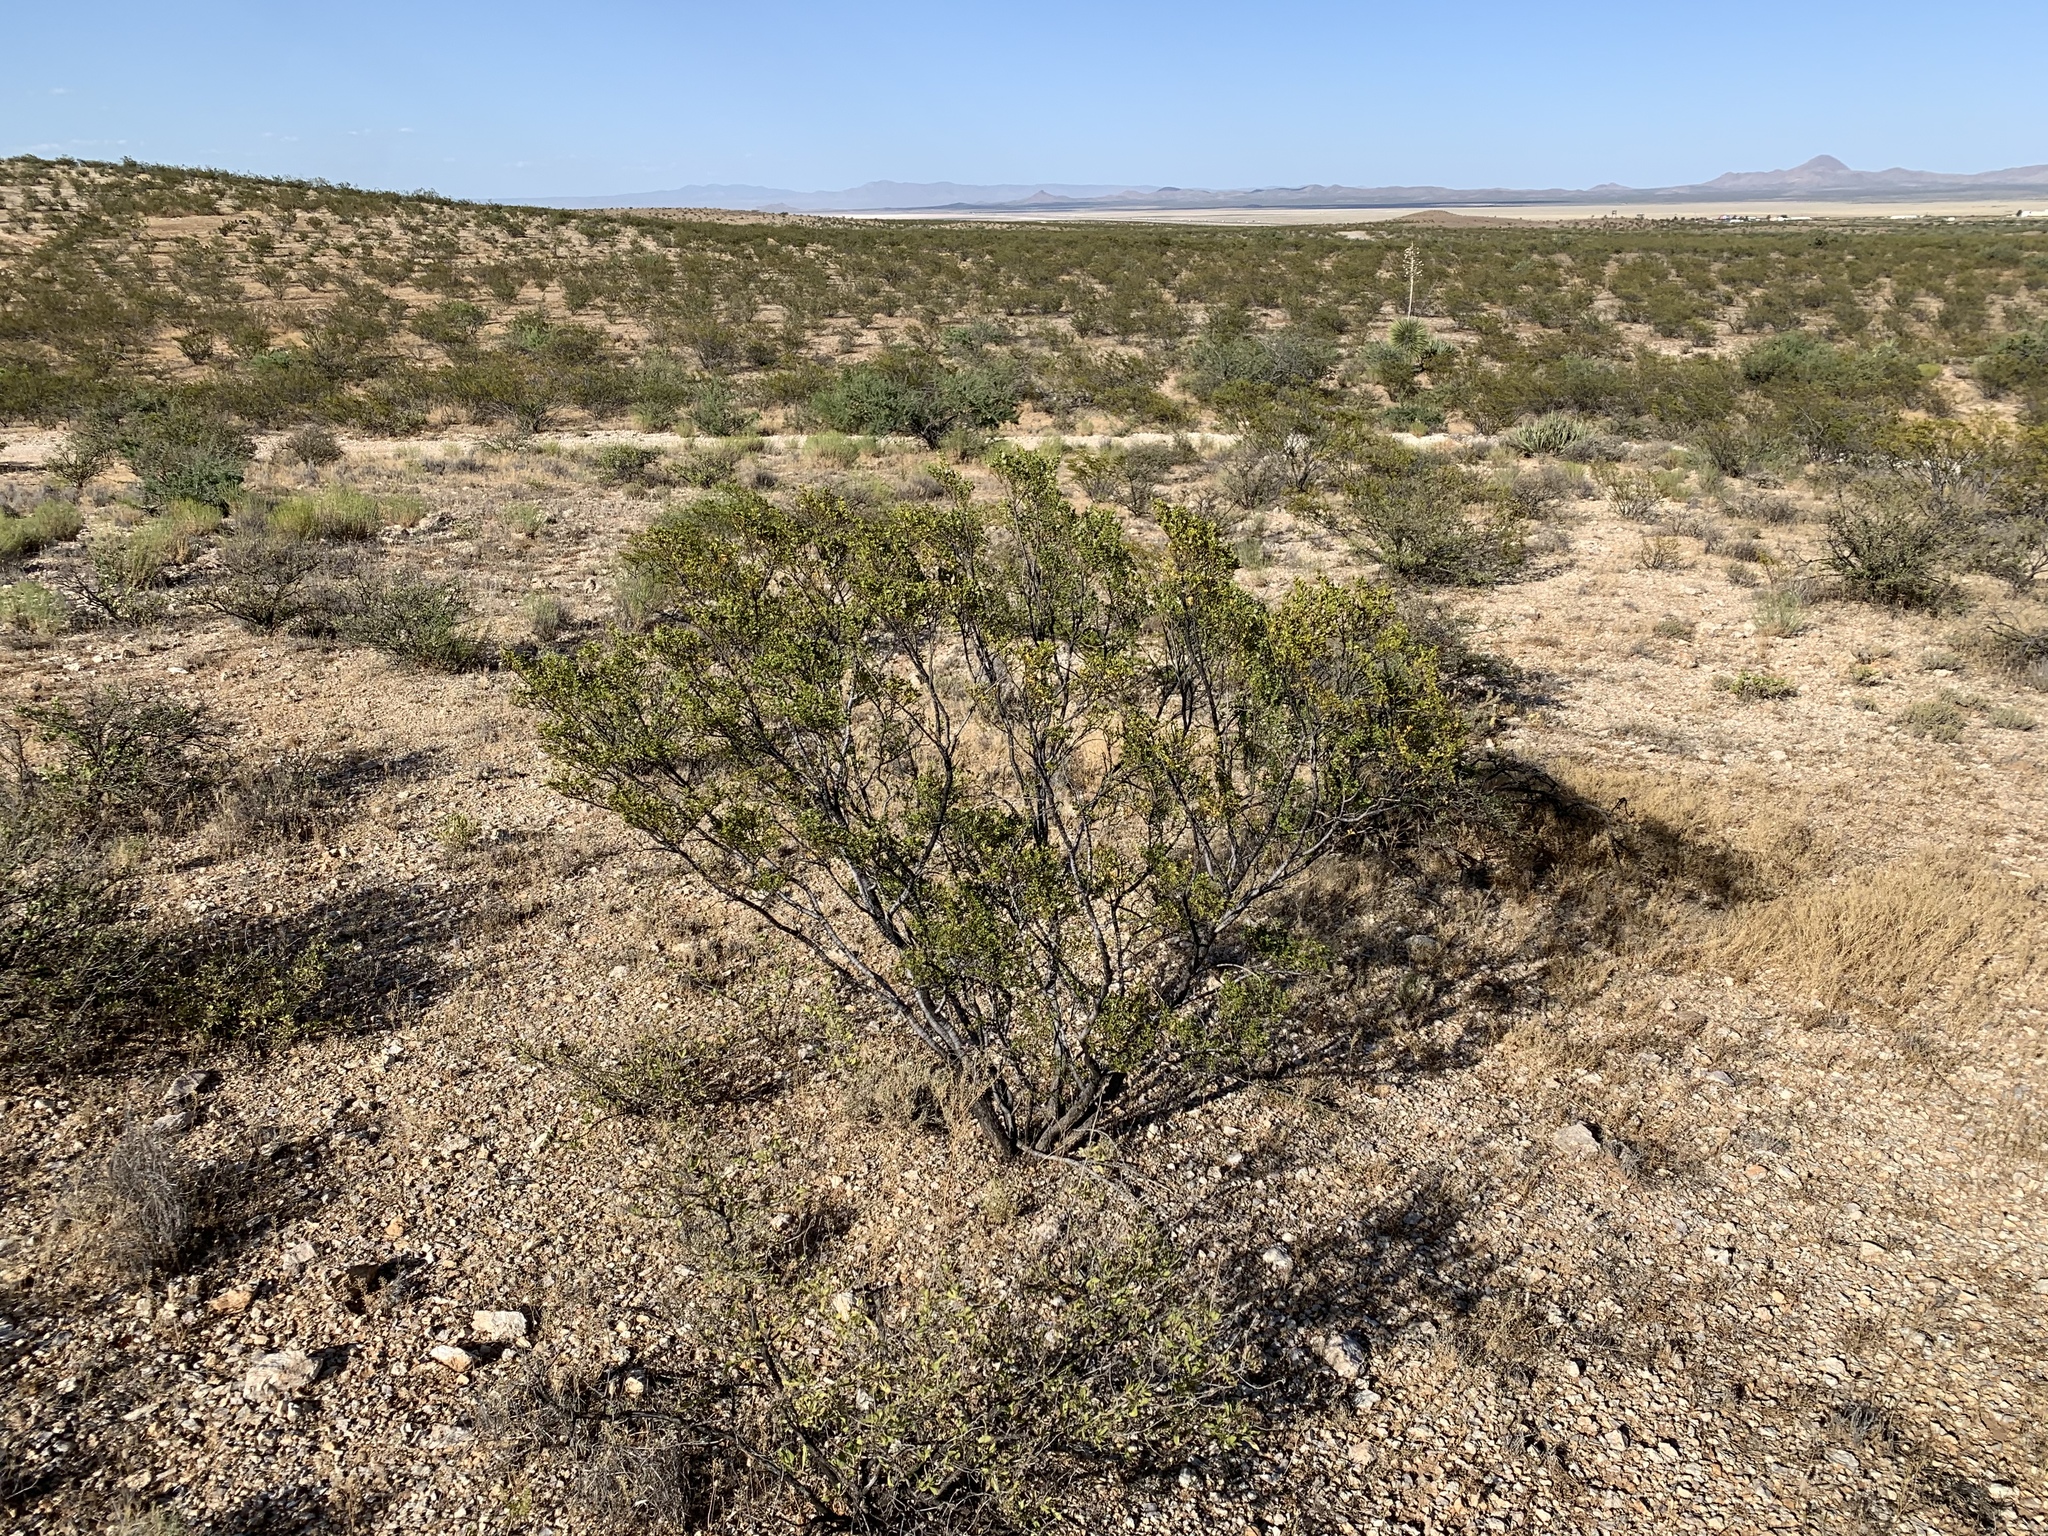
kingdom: Plantae
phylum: Tracheophyta
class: Magnoliopsida
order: Zygophyllales
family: Zygophyllaceae
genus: Larrea
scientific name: Larrea tridentata
